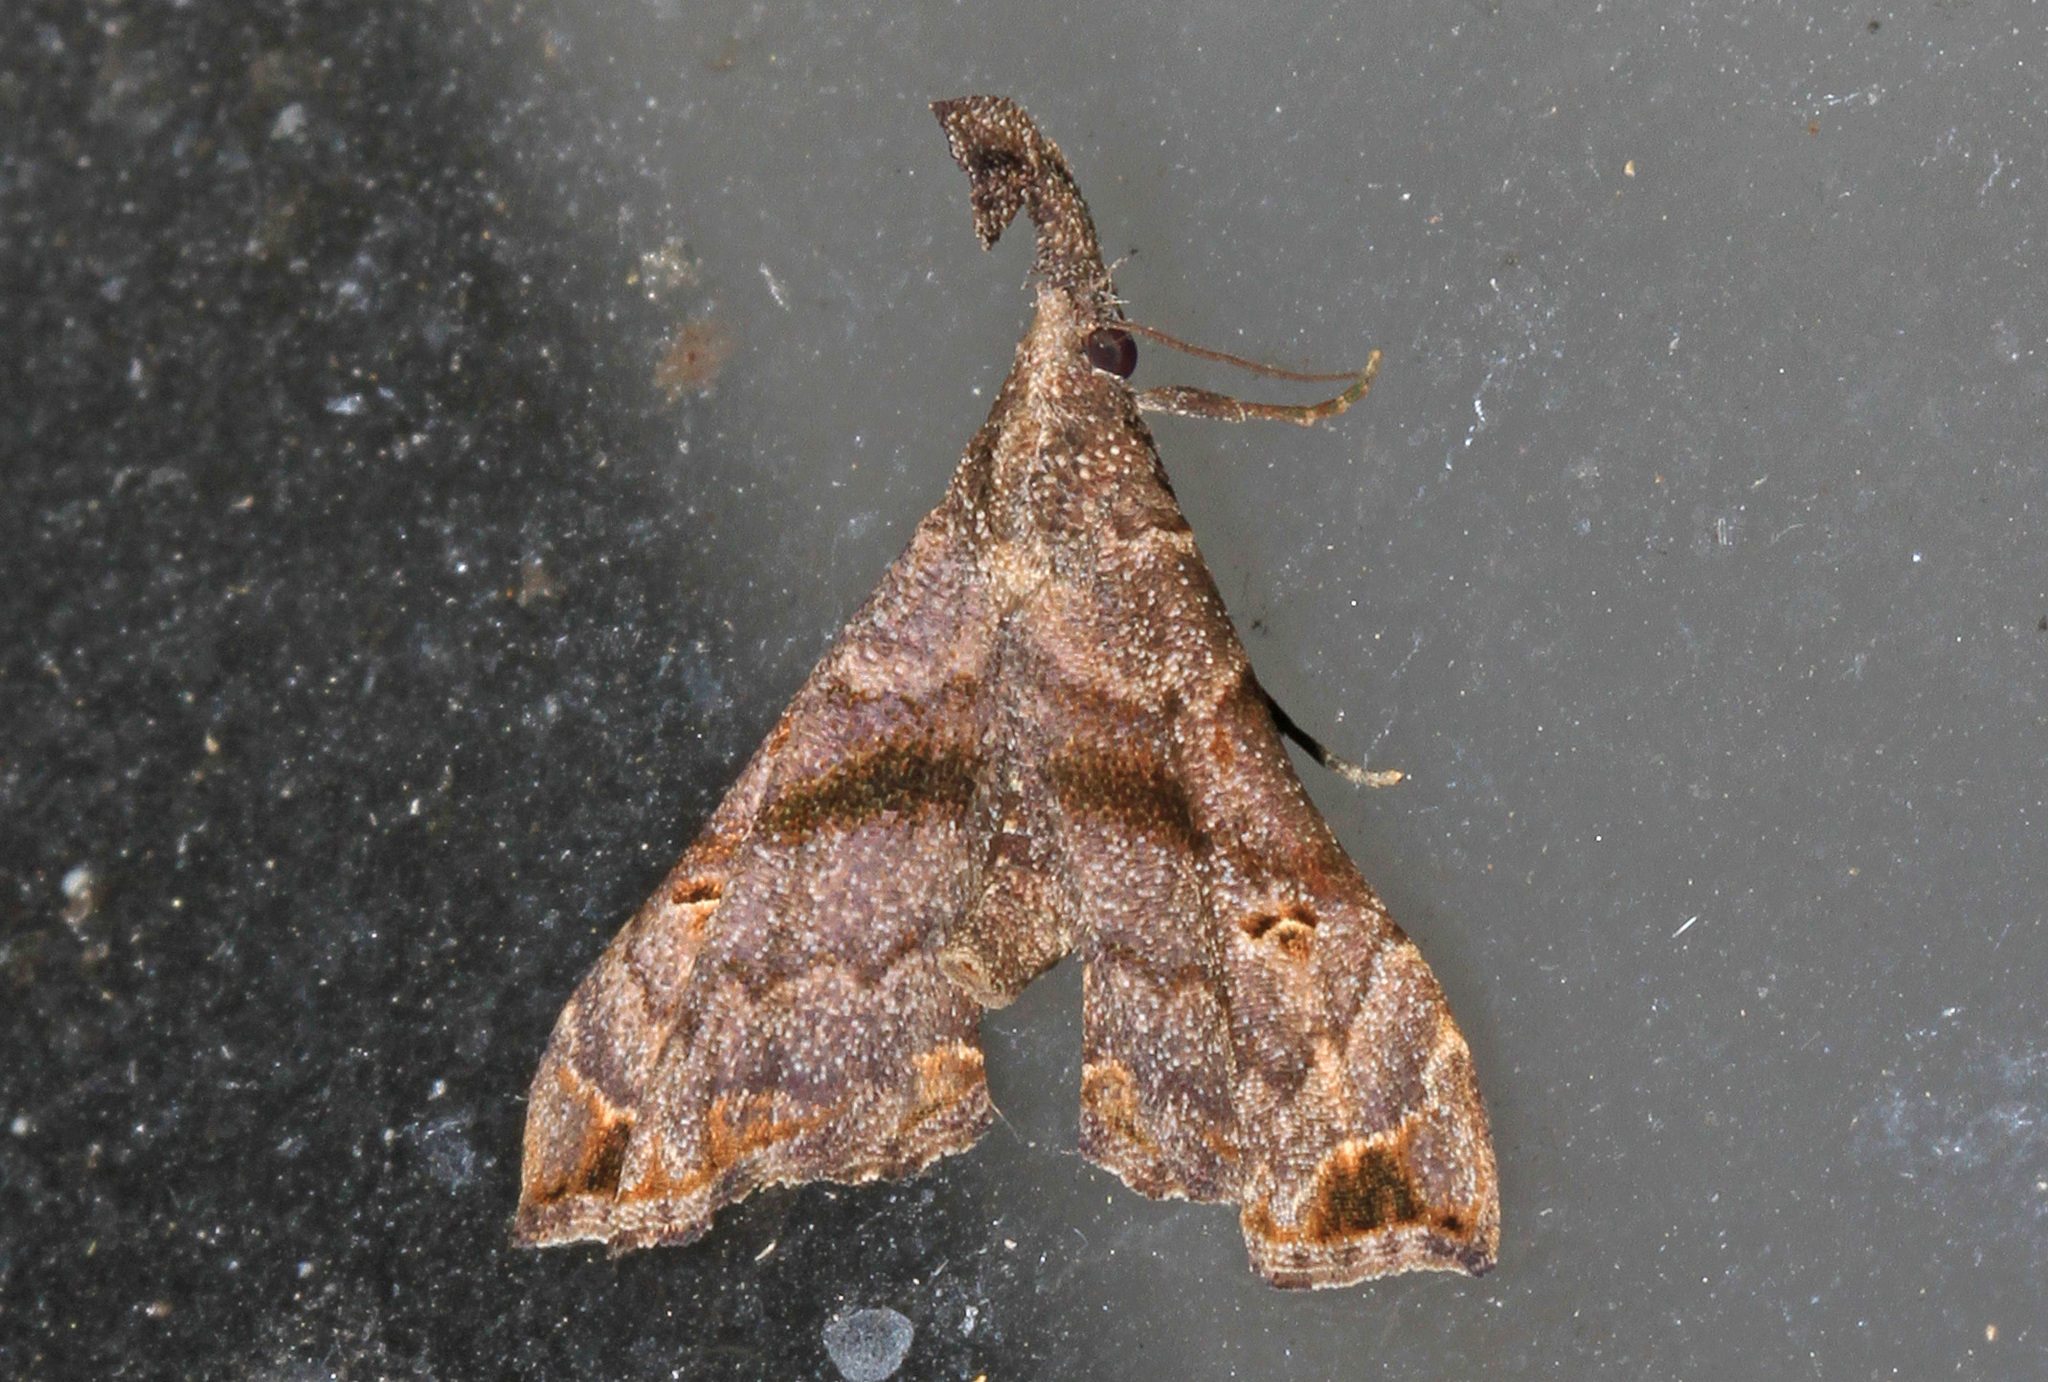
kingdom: Animalia
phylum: Arthropoda
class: Insecta
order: Lepidoptera
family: Erebidae
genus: Palthis
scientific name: Palthis asopialis
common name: Faint-spotted palthis moth
